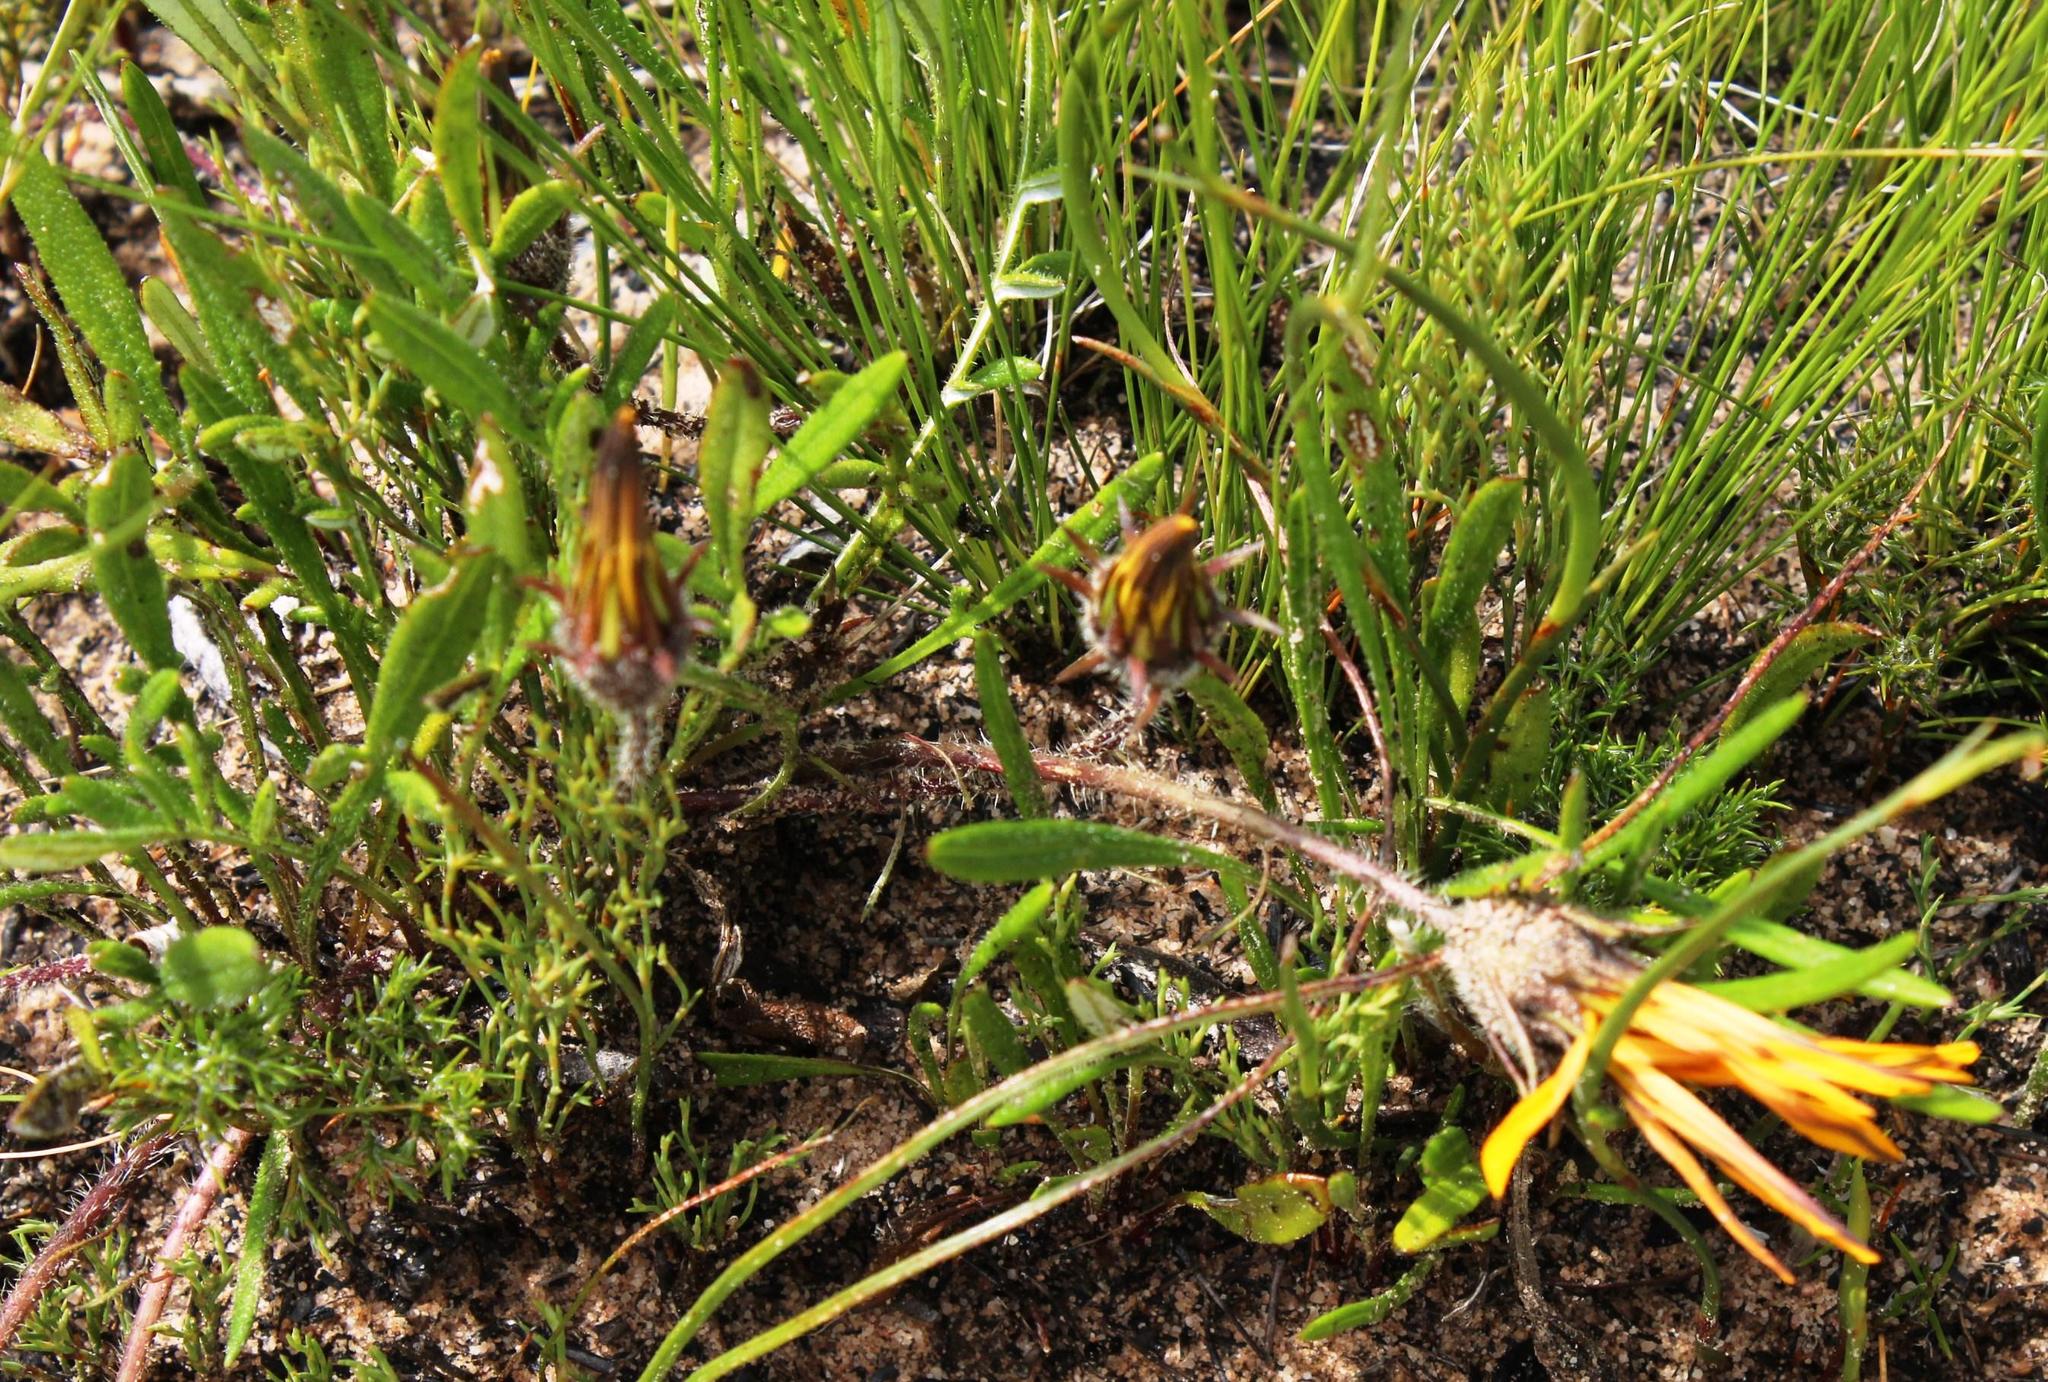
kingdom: Plantae
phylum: Tracheophyta
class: Magnoliopsida
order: Asterales
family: Asteraceae
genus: Gazania
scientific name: Gazania serrata
